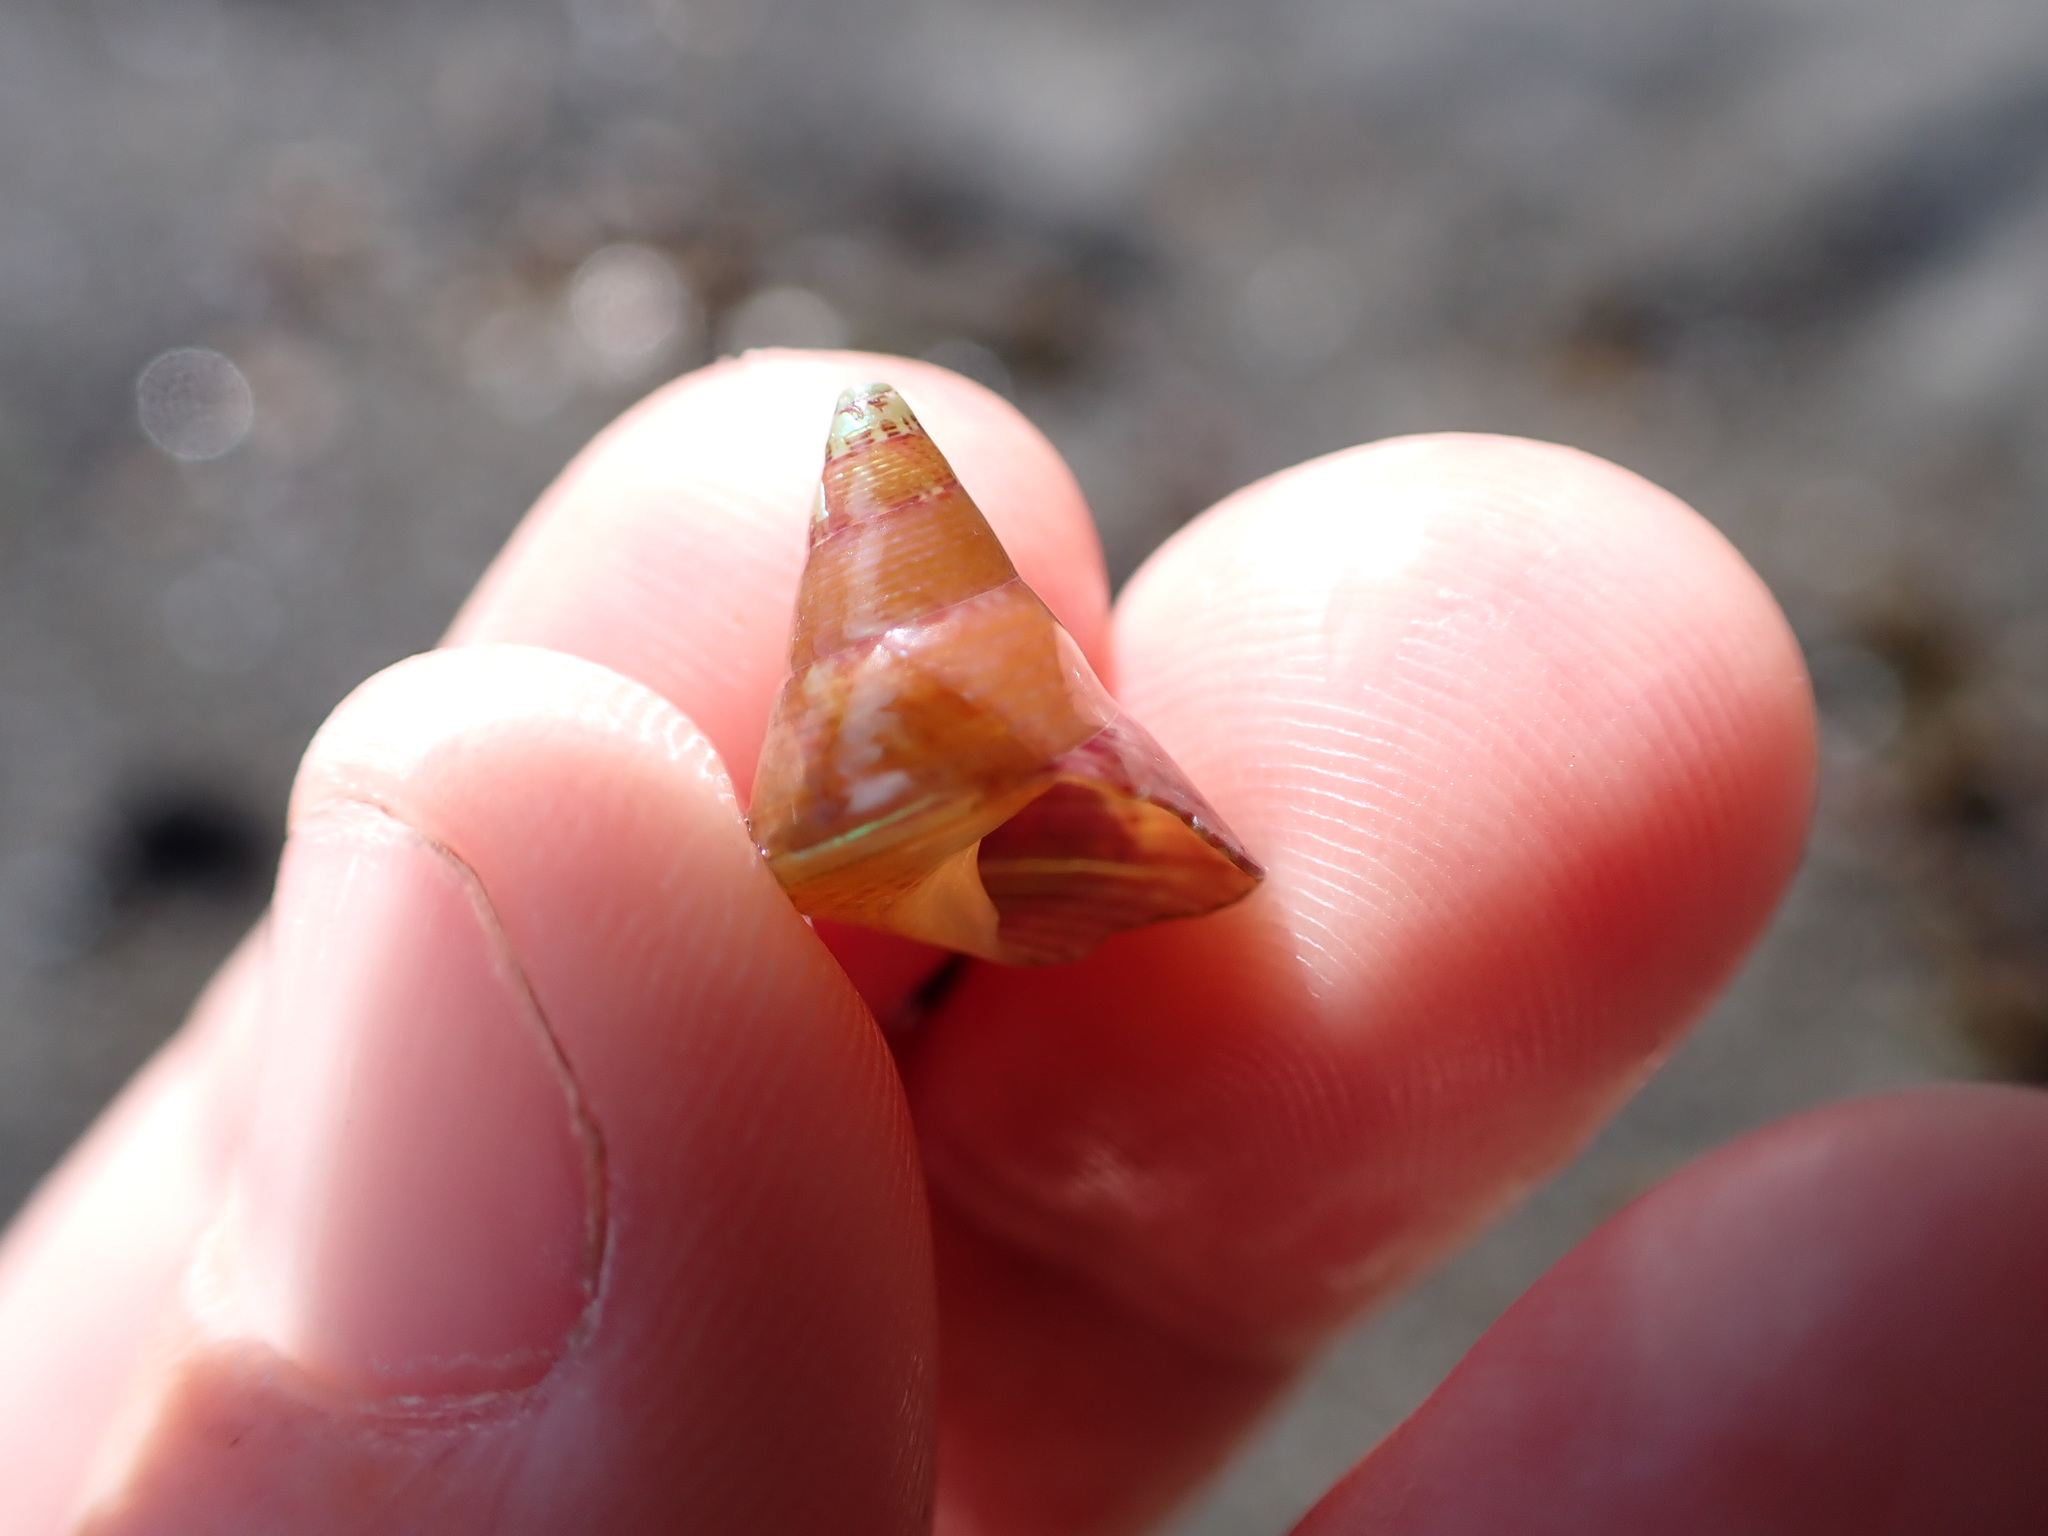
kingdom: Animalia
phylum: Mollusca
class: Gastropoda
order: Trochida
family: Trochidae
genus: Cantharidus
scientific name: Cantharidus opalus
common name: Opal jewel topsnail
